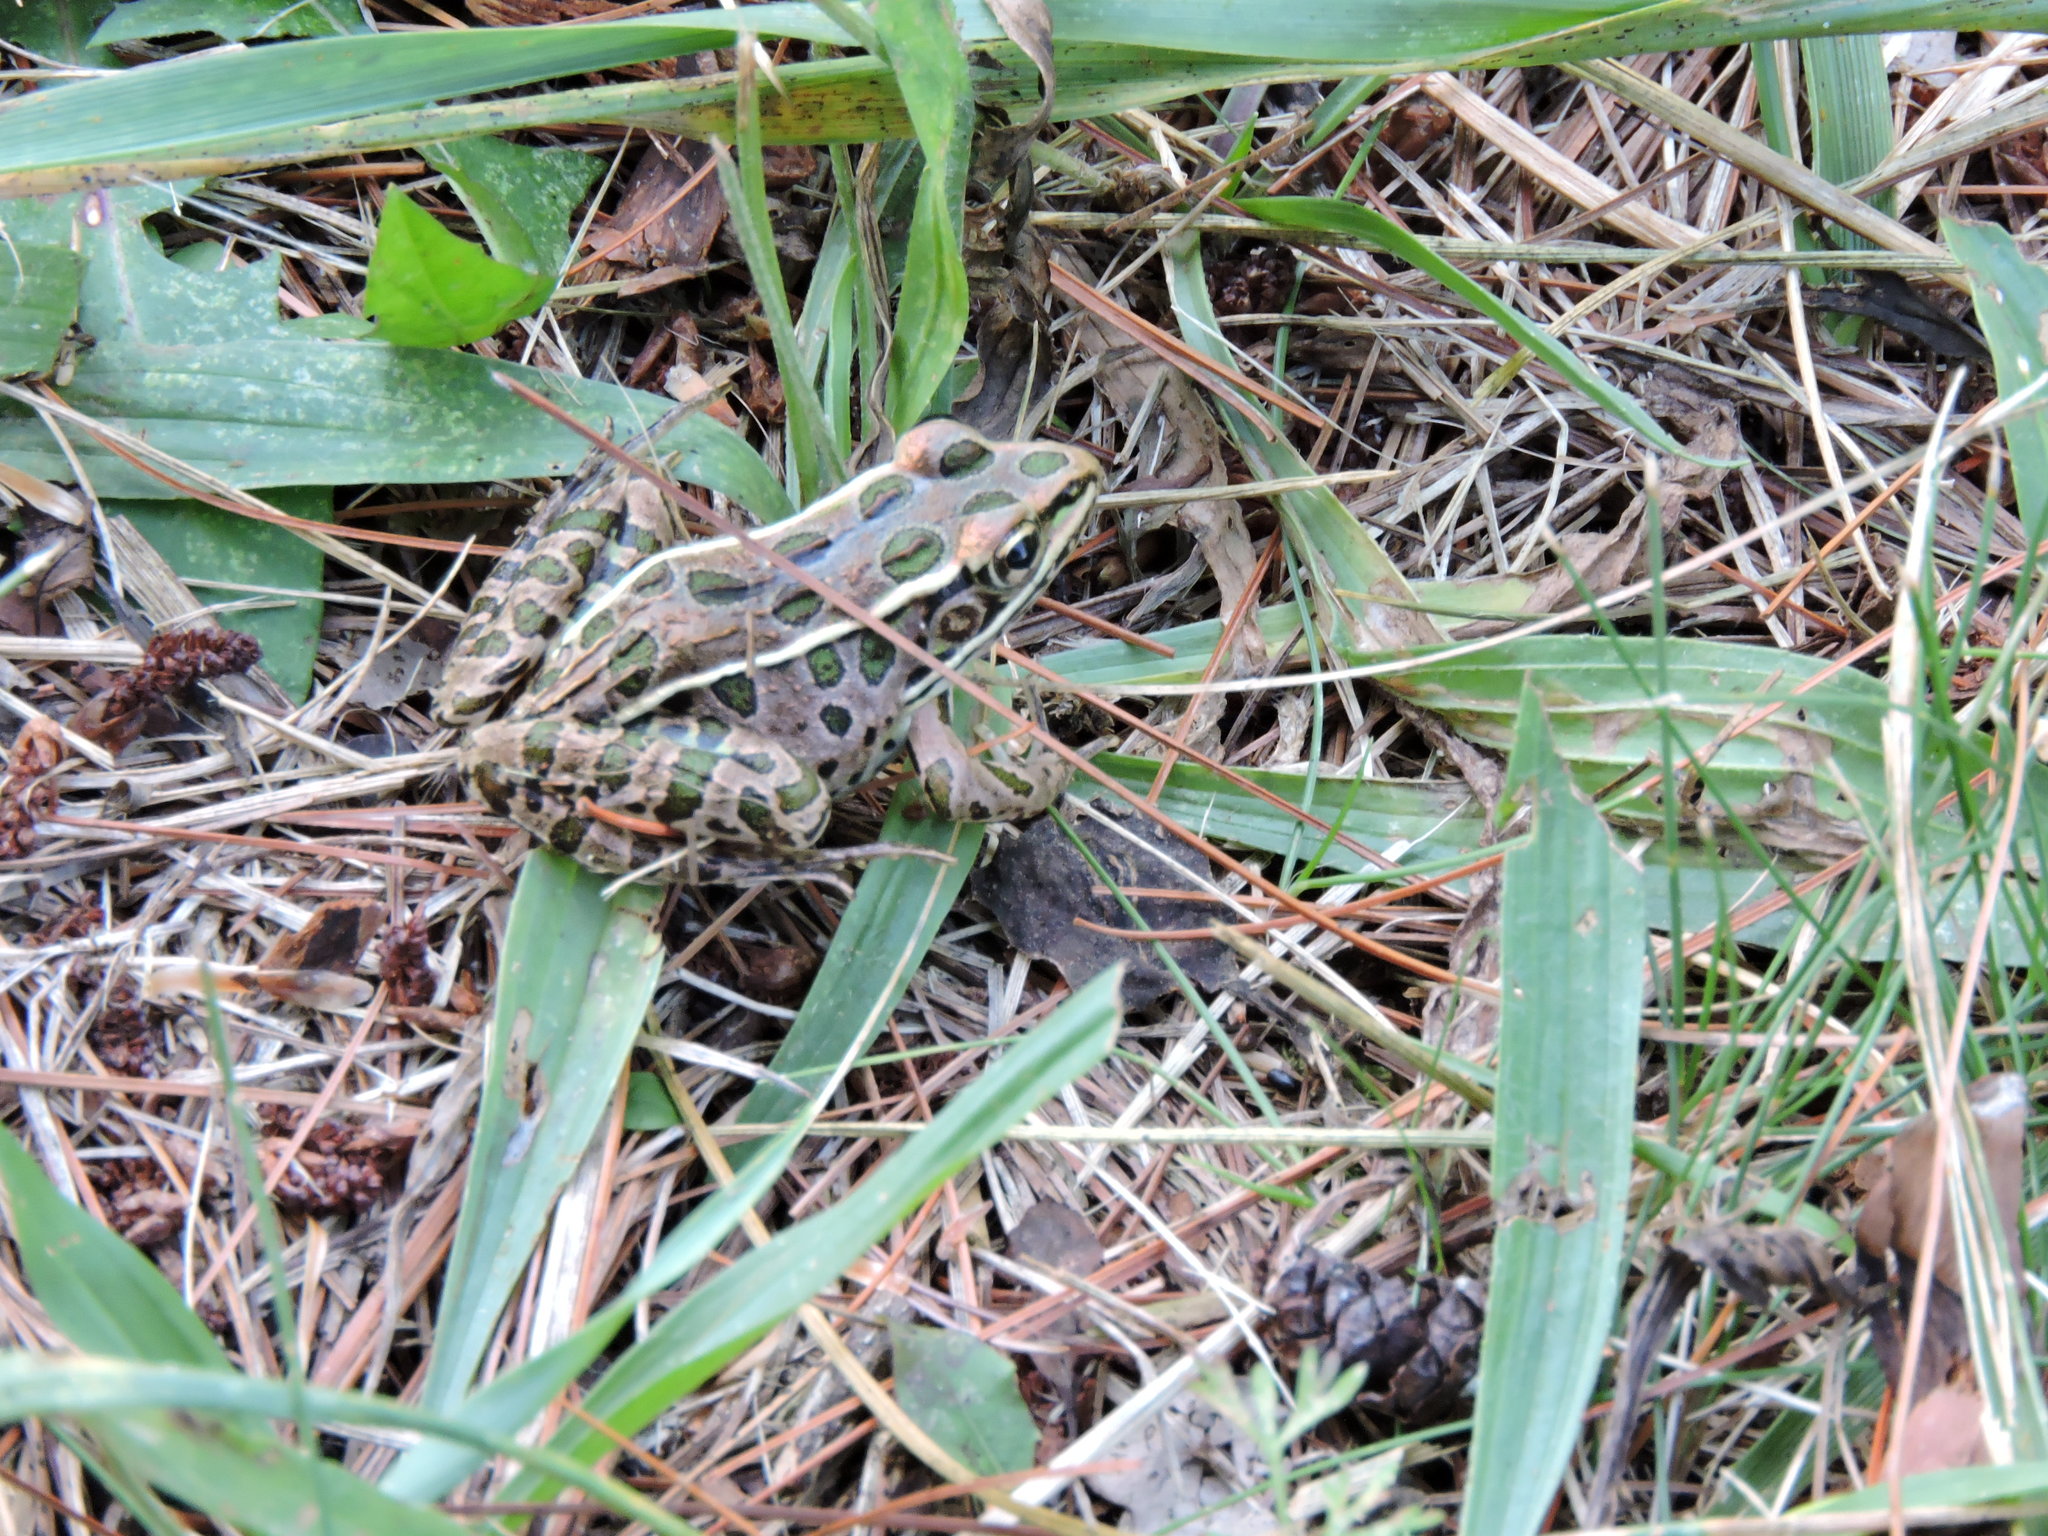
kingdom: Animalia
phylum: Chordata
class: Amphibia
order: Anura
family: Ranidae
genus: Lithobates
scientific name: Lithobates pipiens
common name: Northern leopard frog
